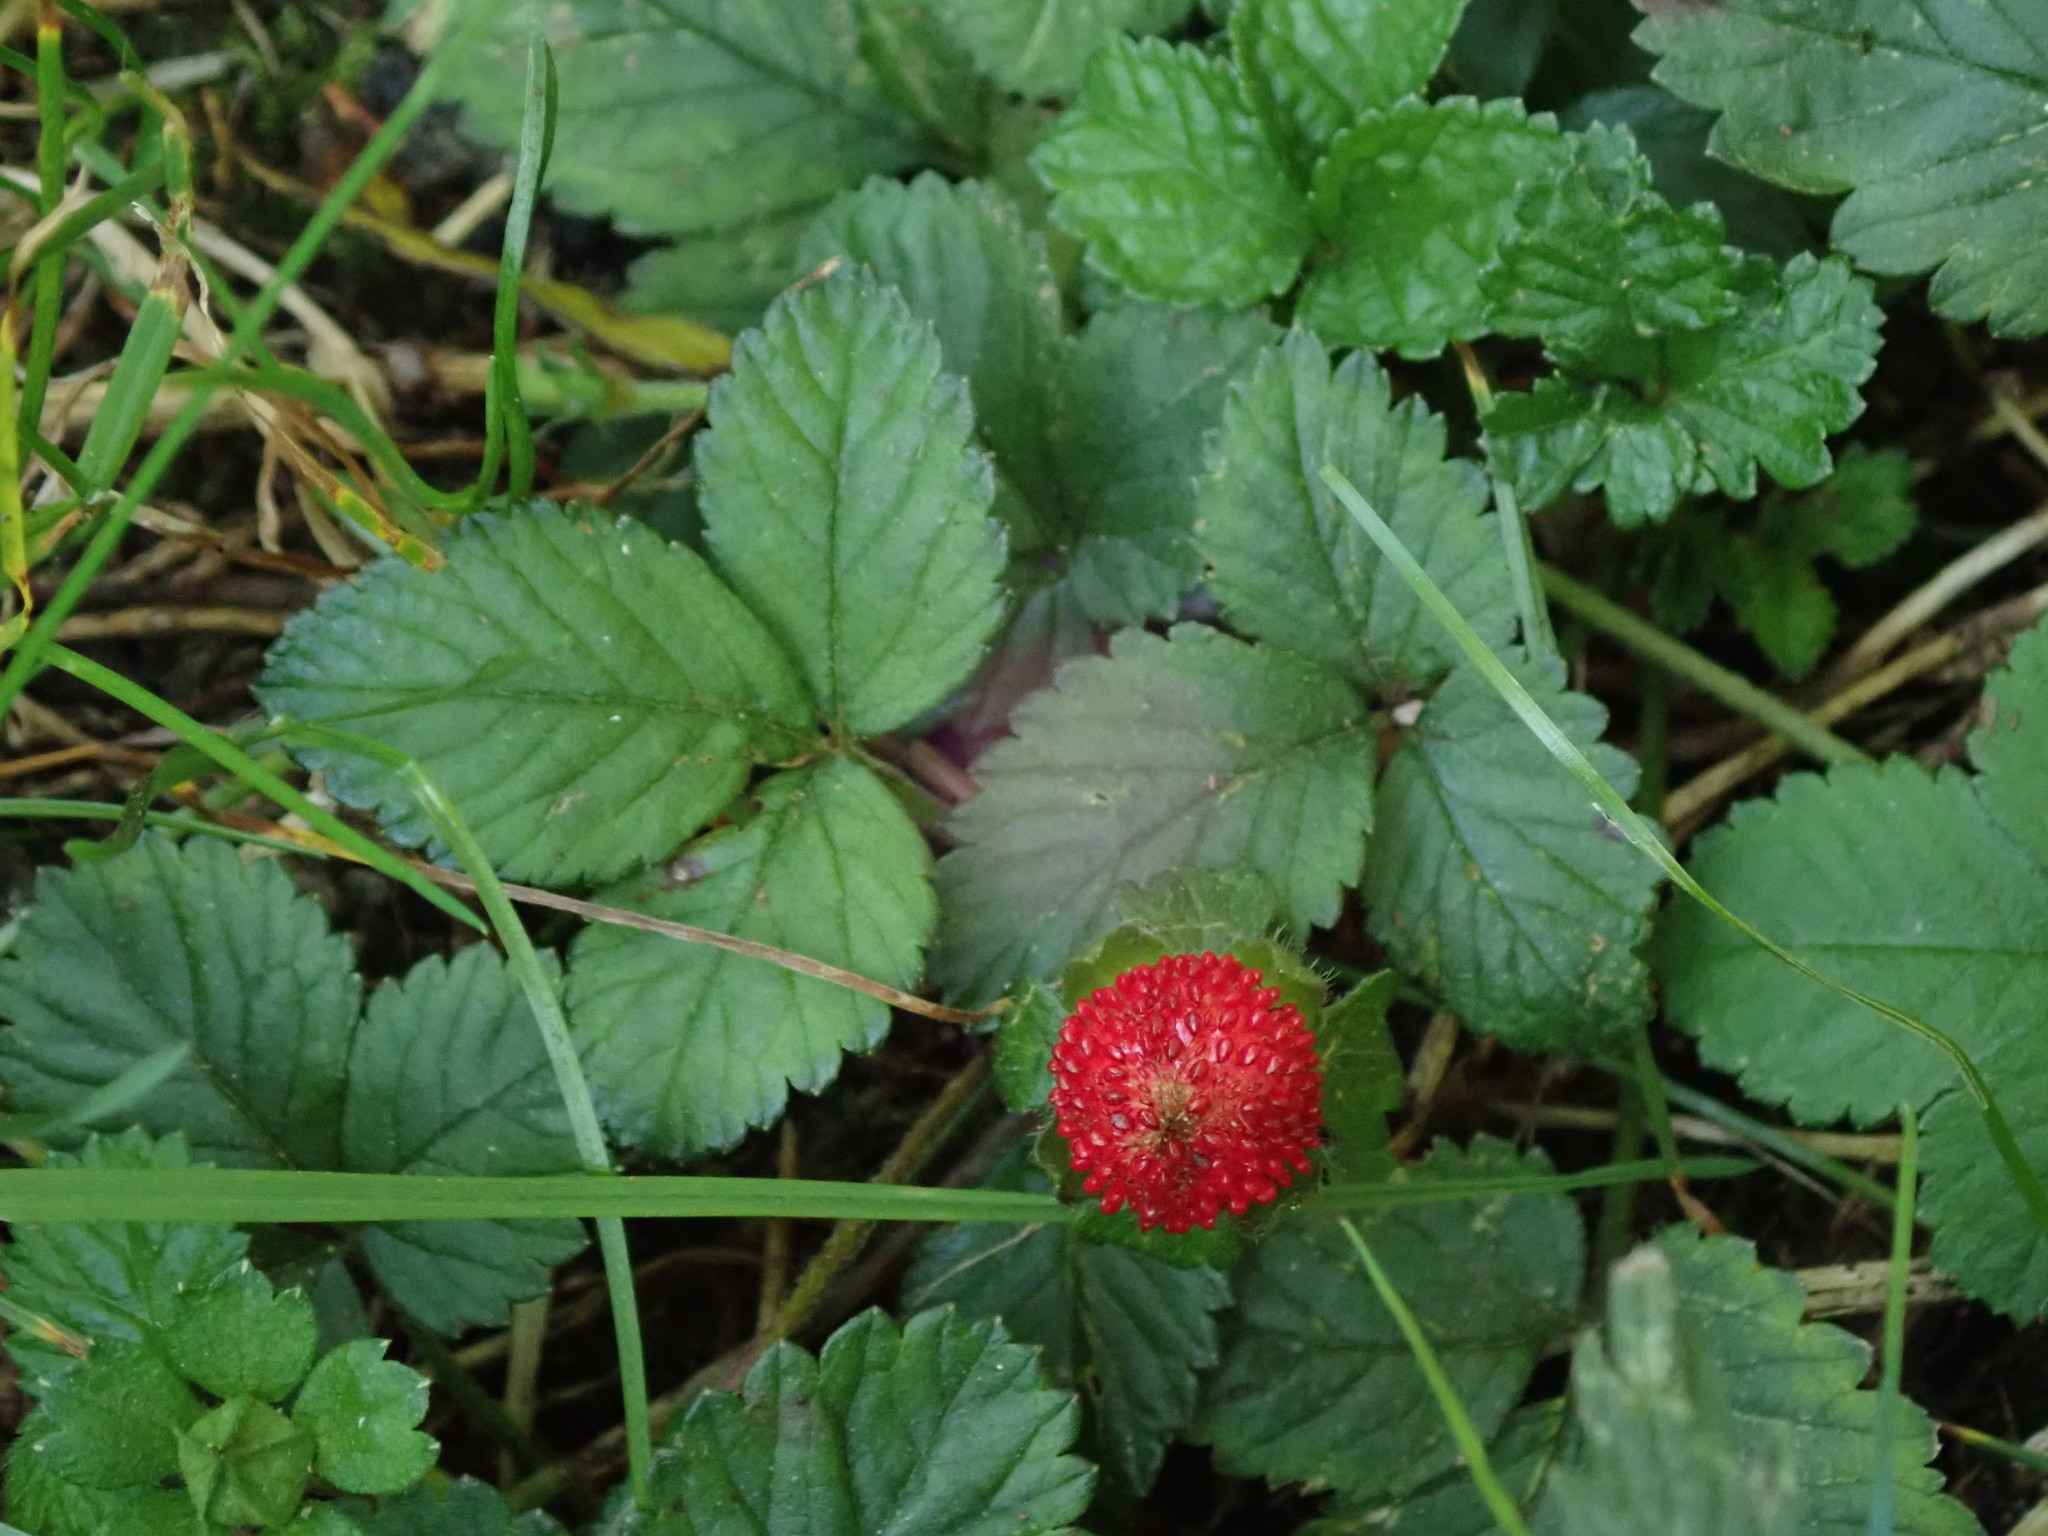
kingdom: Plantae
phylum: Tracheophyta
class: Magnoliopsida
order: Rosales
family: Rosaceae
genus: Potentilla
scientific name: Potentilla indica
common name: Yellow-flowered strawberry
